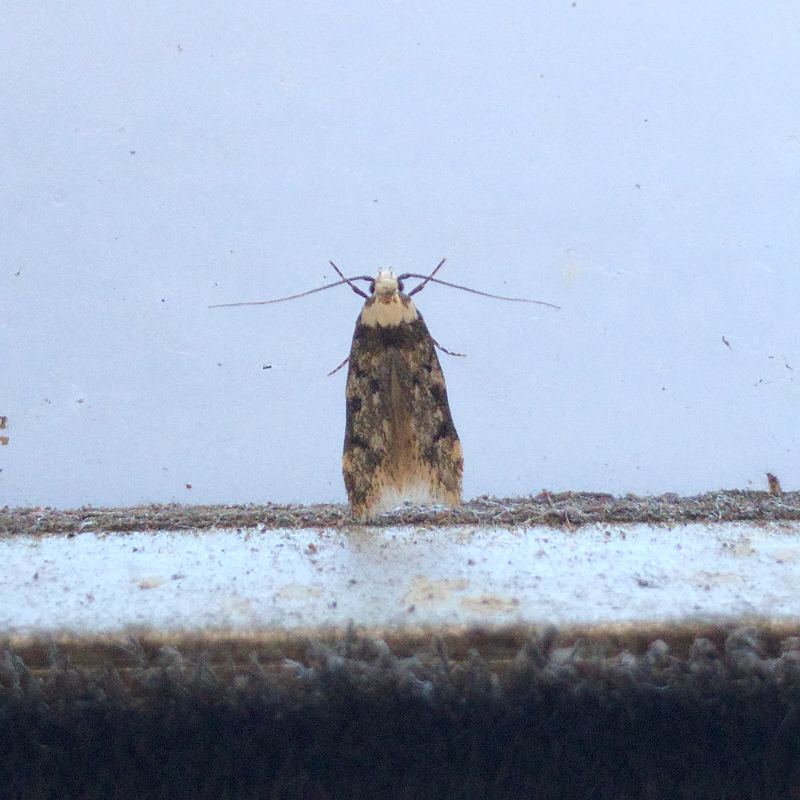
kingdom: Animalia
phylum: Arthropoda
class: Insecta
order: Lepidoptera
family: Oecophoridae
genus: Endrosis
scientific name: Endrosis sarcitrella
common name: White-shouldered house moth
